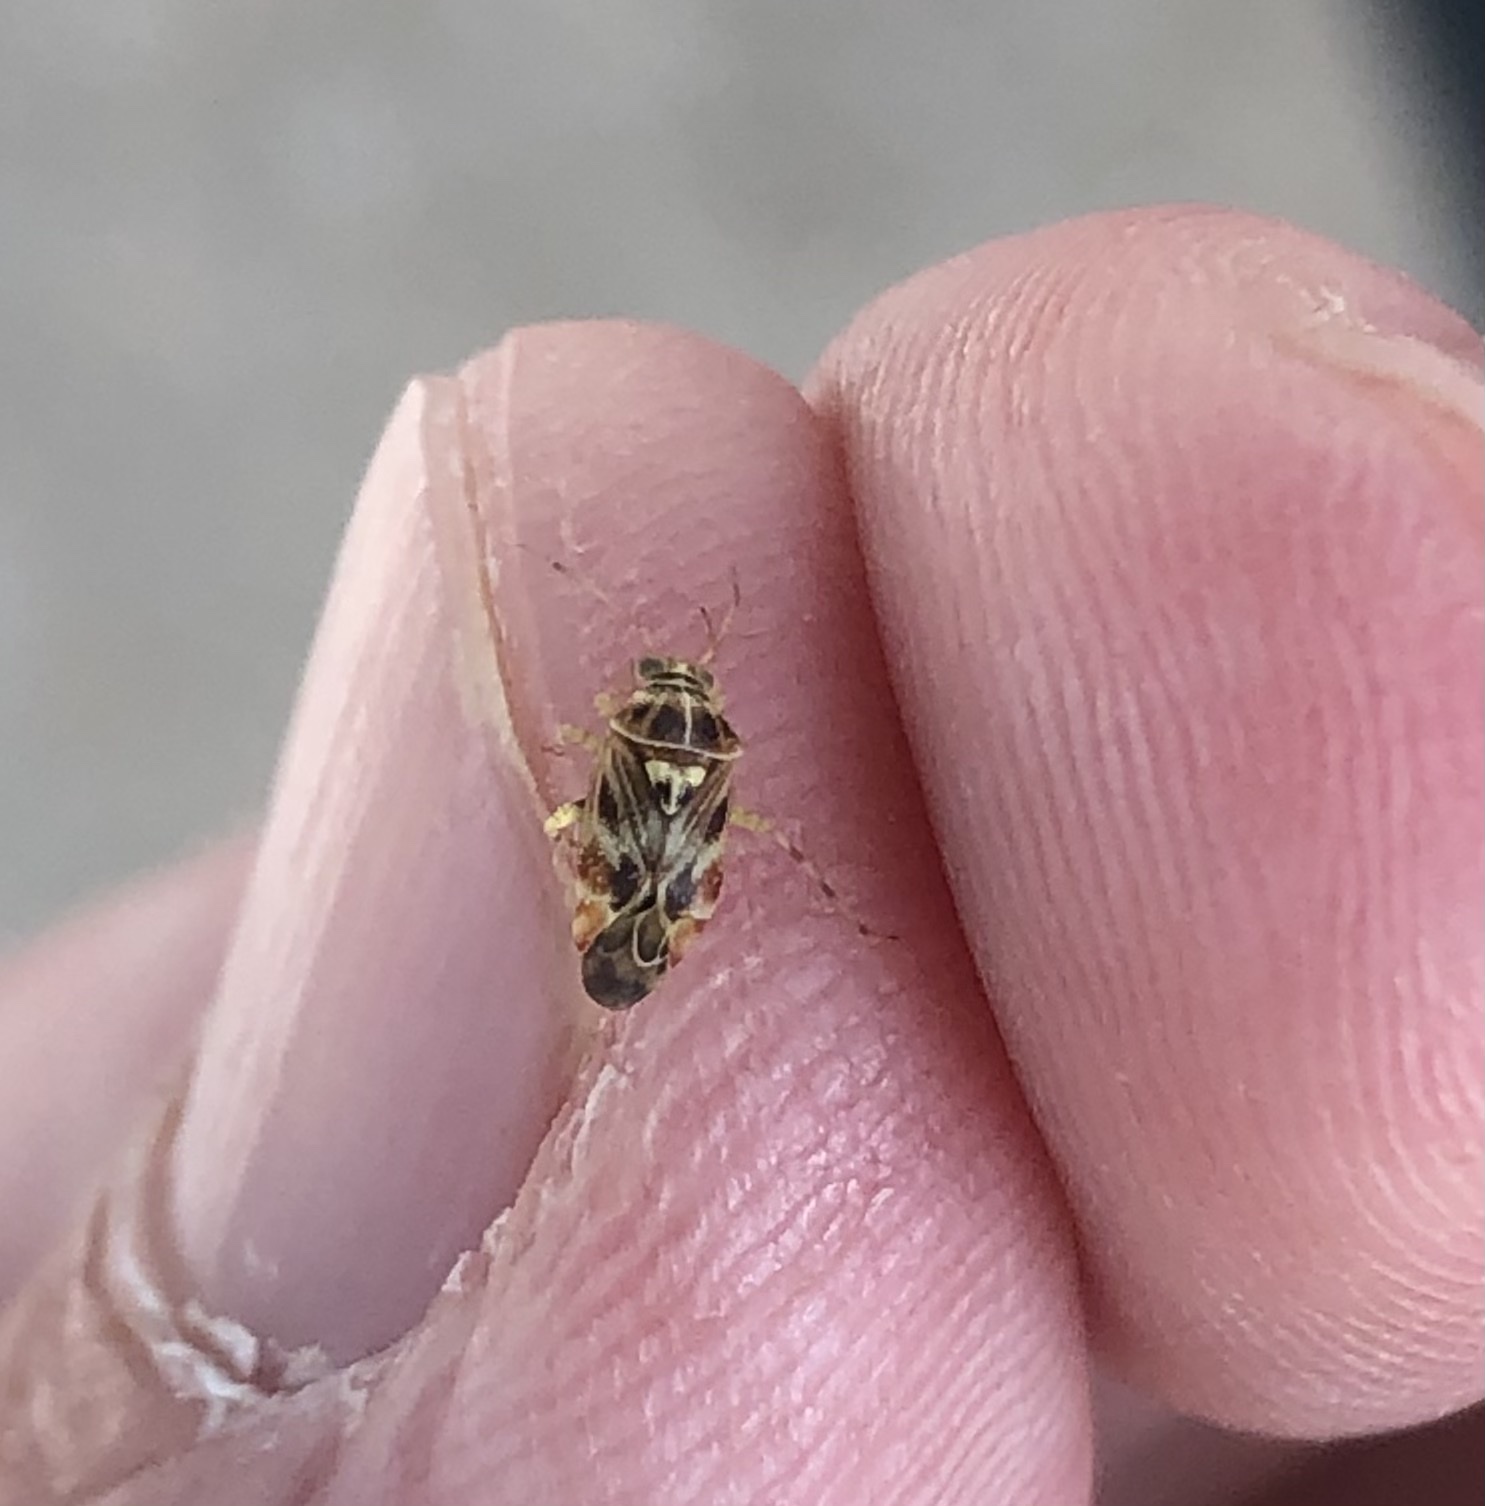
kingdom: Animalia
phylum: Arthropoda
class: Insecta
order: Hemiptera
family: Miridae
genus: Tropidosteptes
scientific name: Tropidosteptes quercicola
